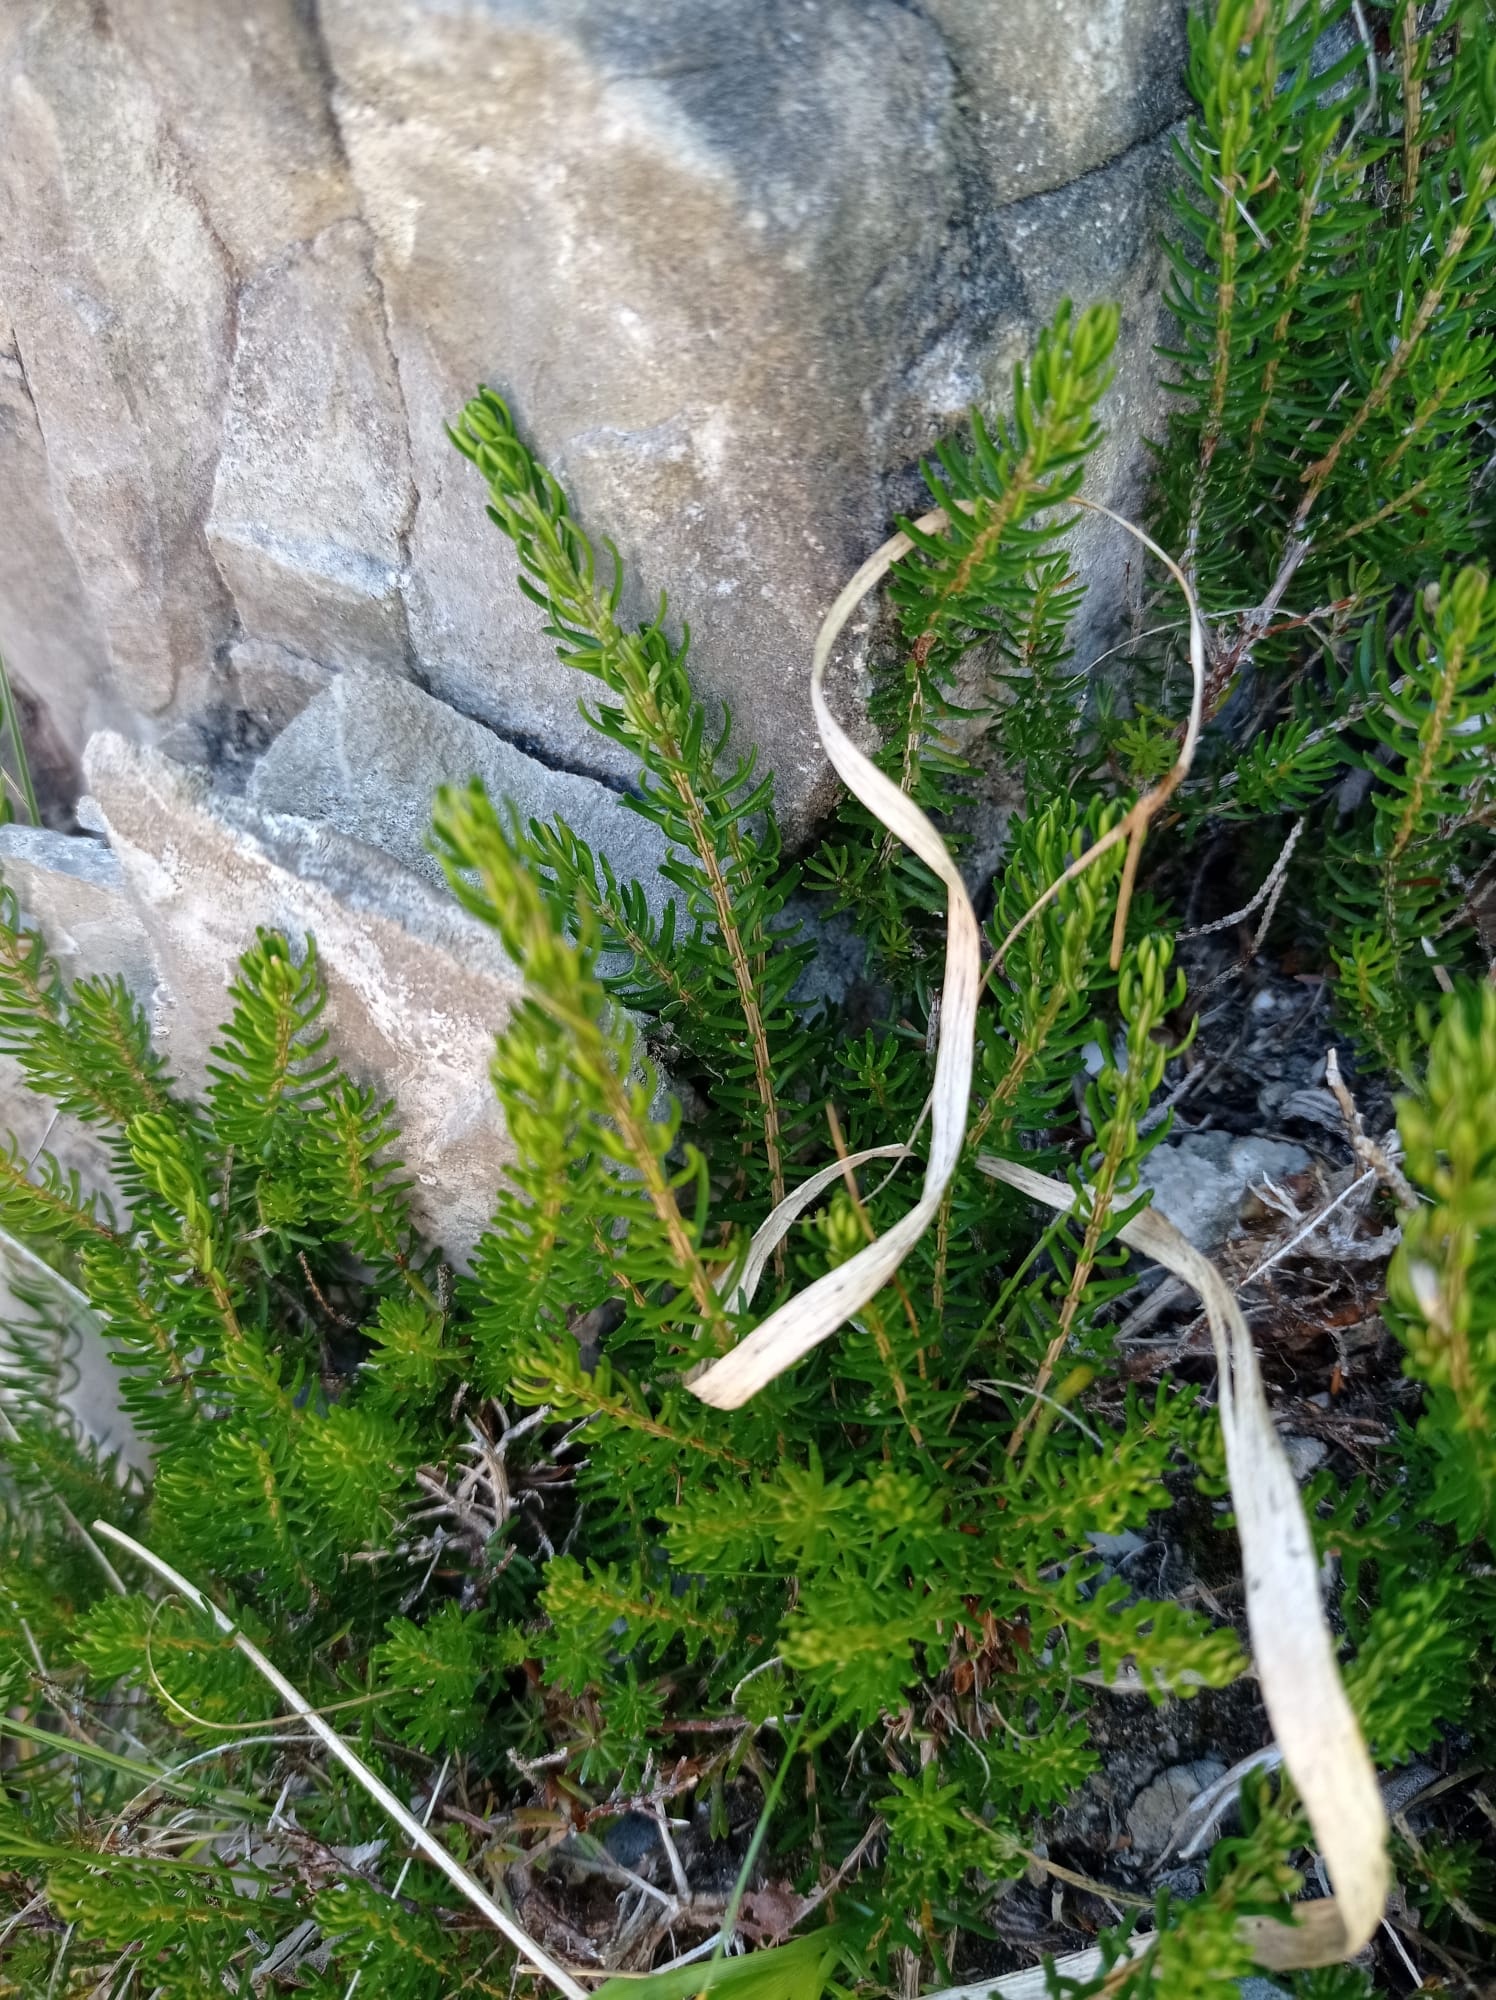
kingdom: Plantae
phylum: Tracheophyta
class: Magnoliopsida
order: Ericales
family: Ericaceae
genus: Erica
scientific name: Erica carnea
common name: Winter heath
